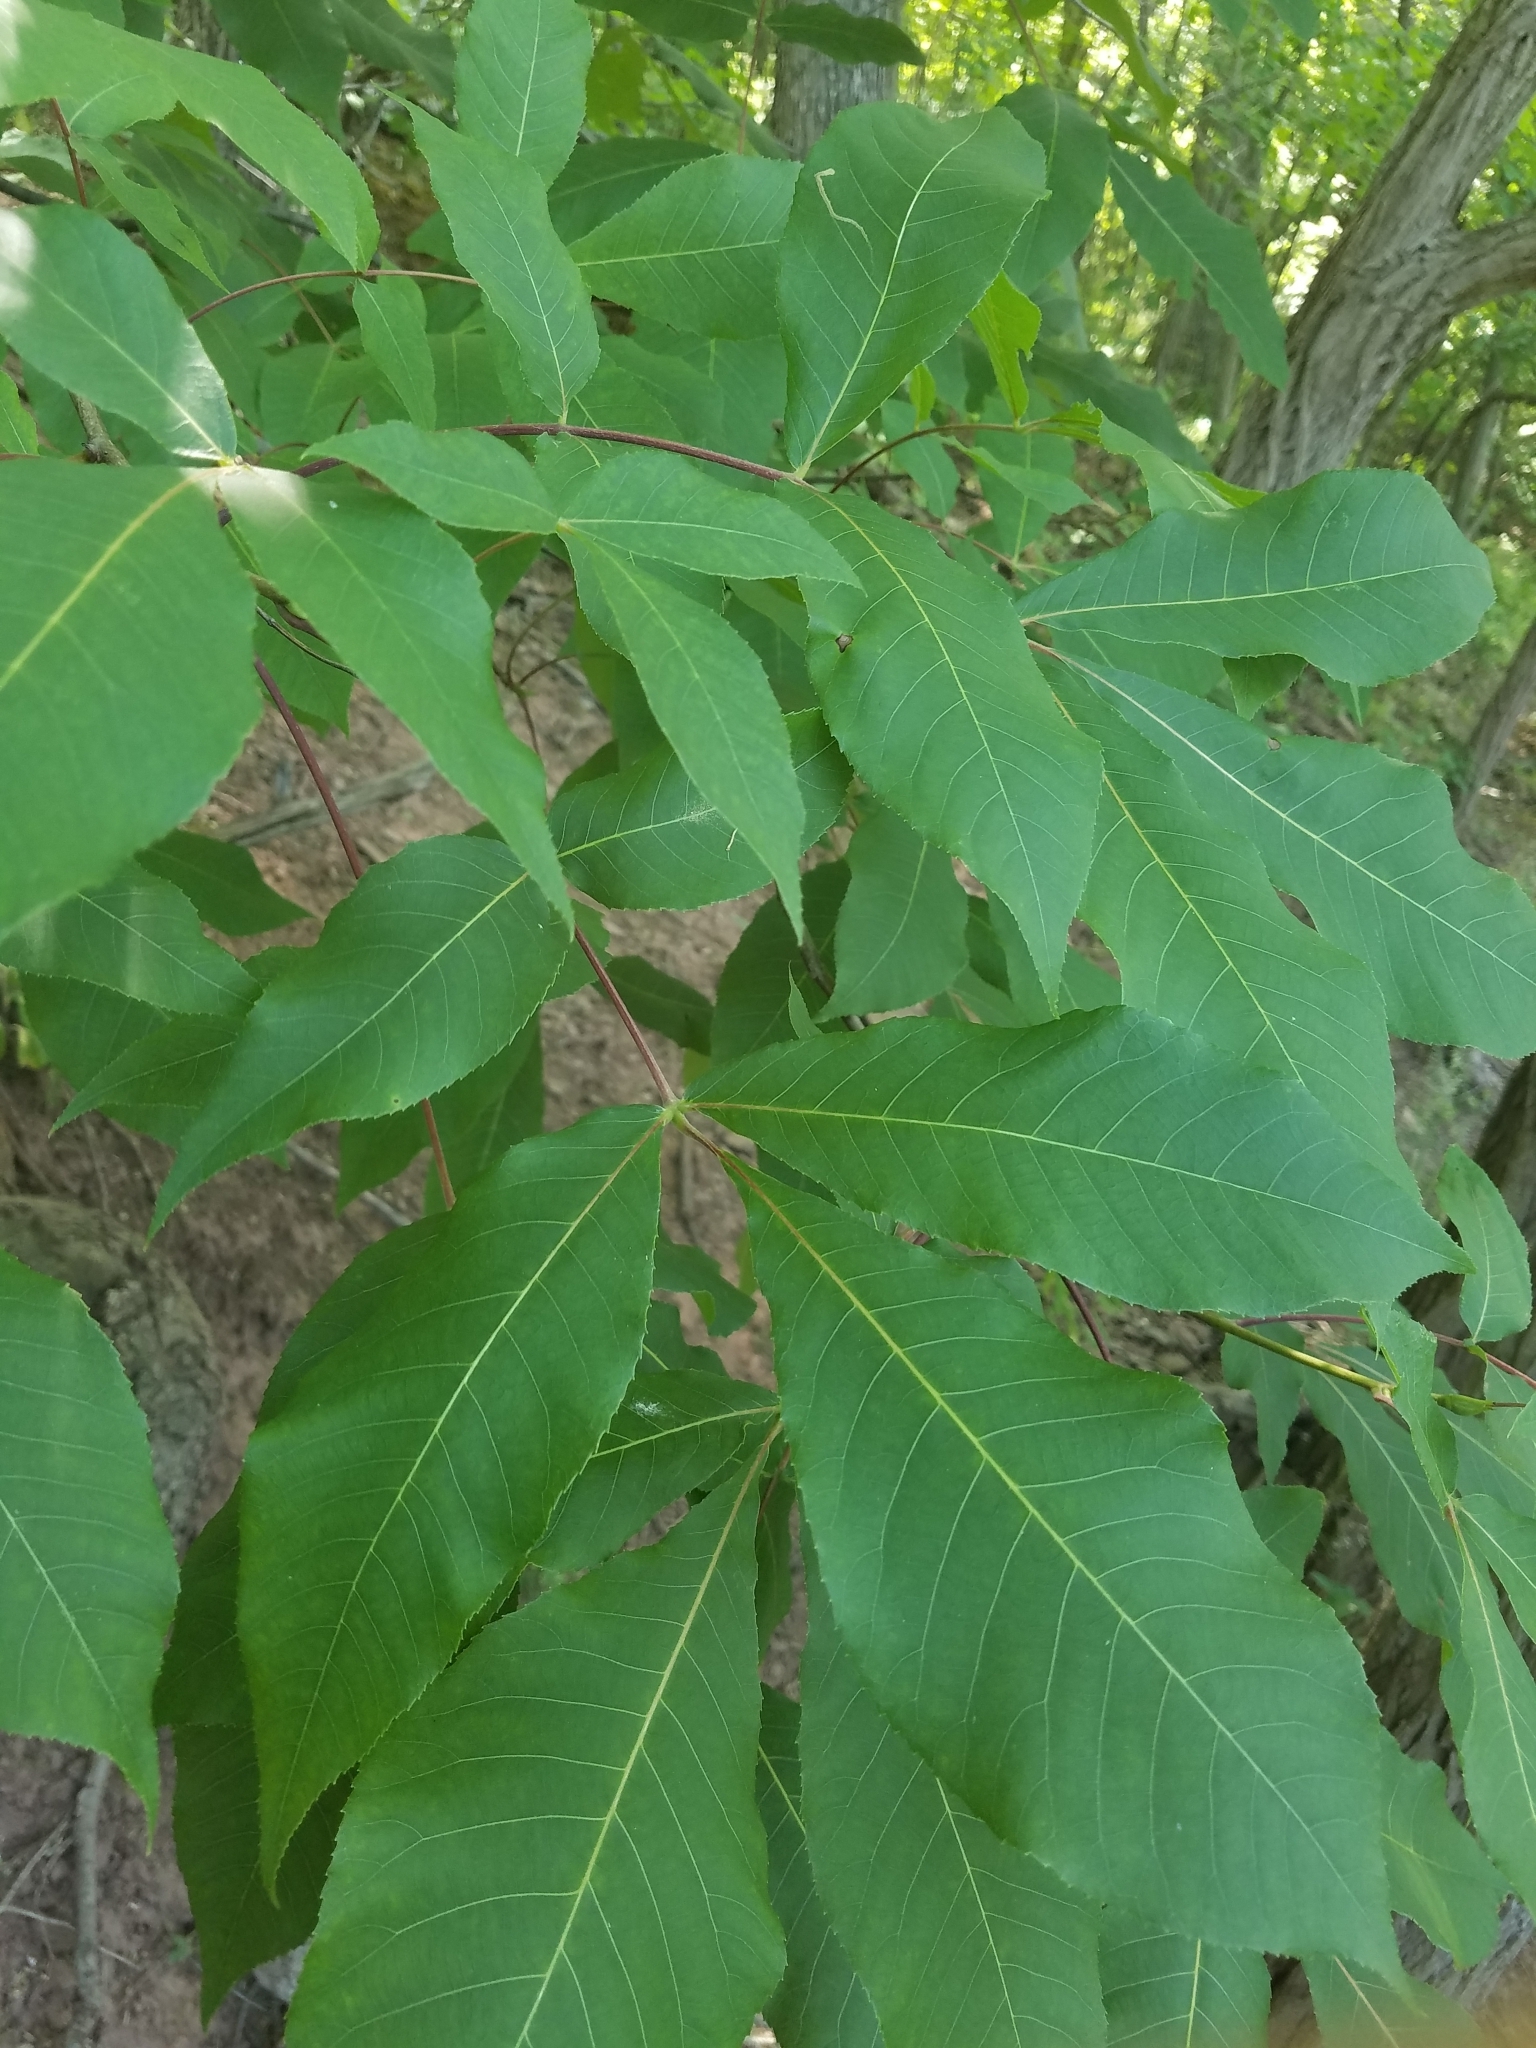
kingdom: Plantae
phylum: Tracheophyta
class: Magnoliopsida
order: Fagales
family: Juglandaceae
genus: Carya
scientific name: Carya ovalis
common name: False shagbark
